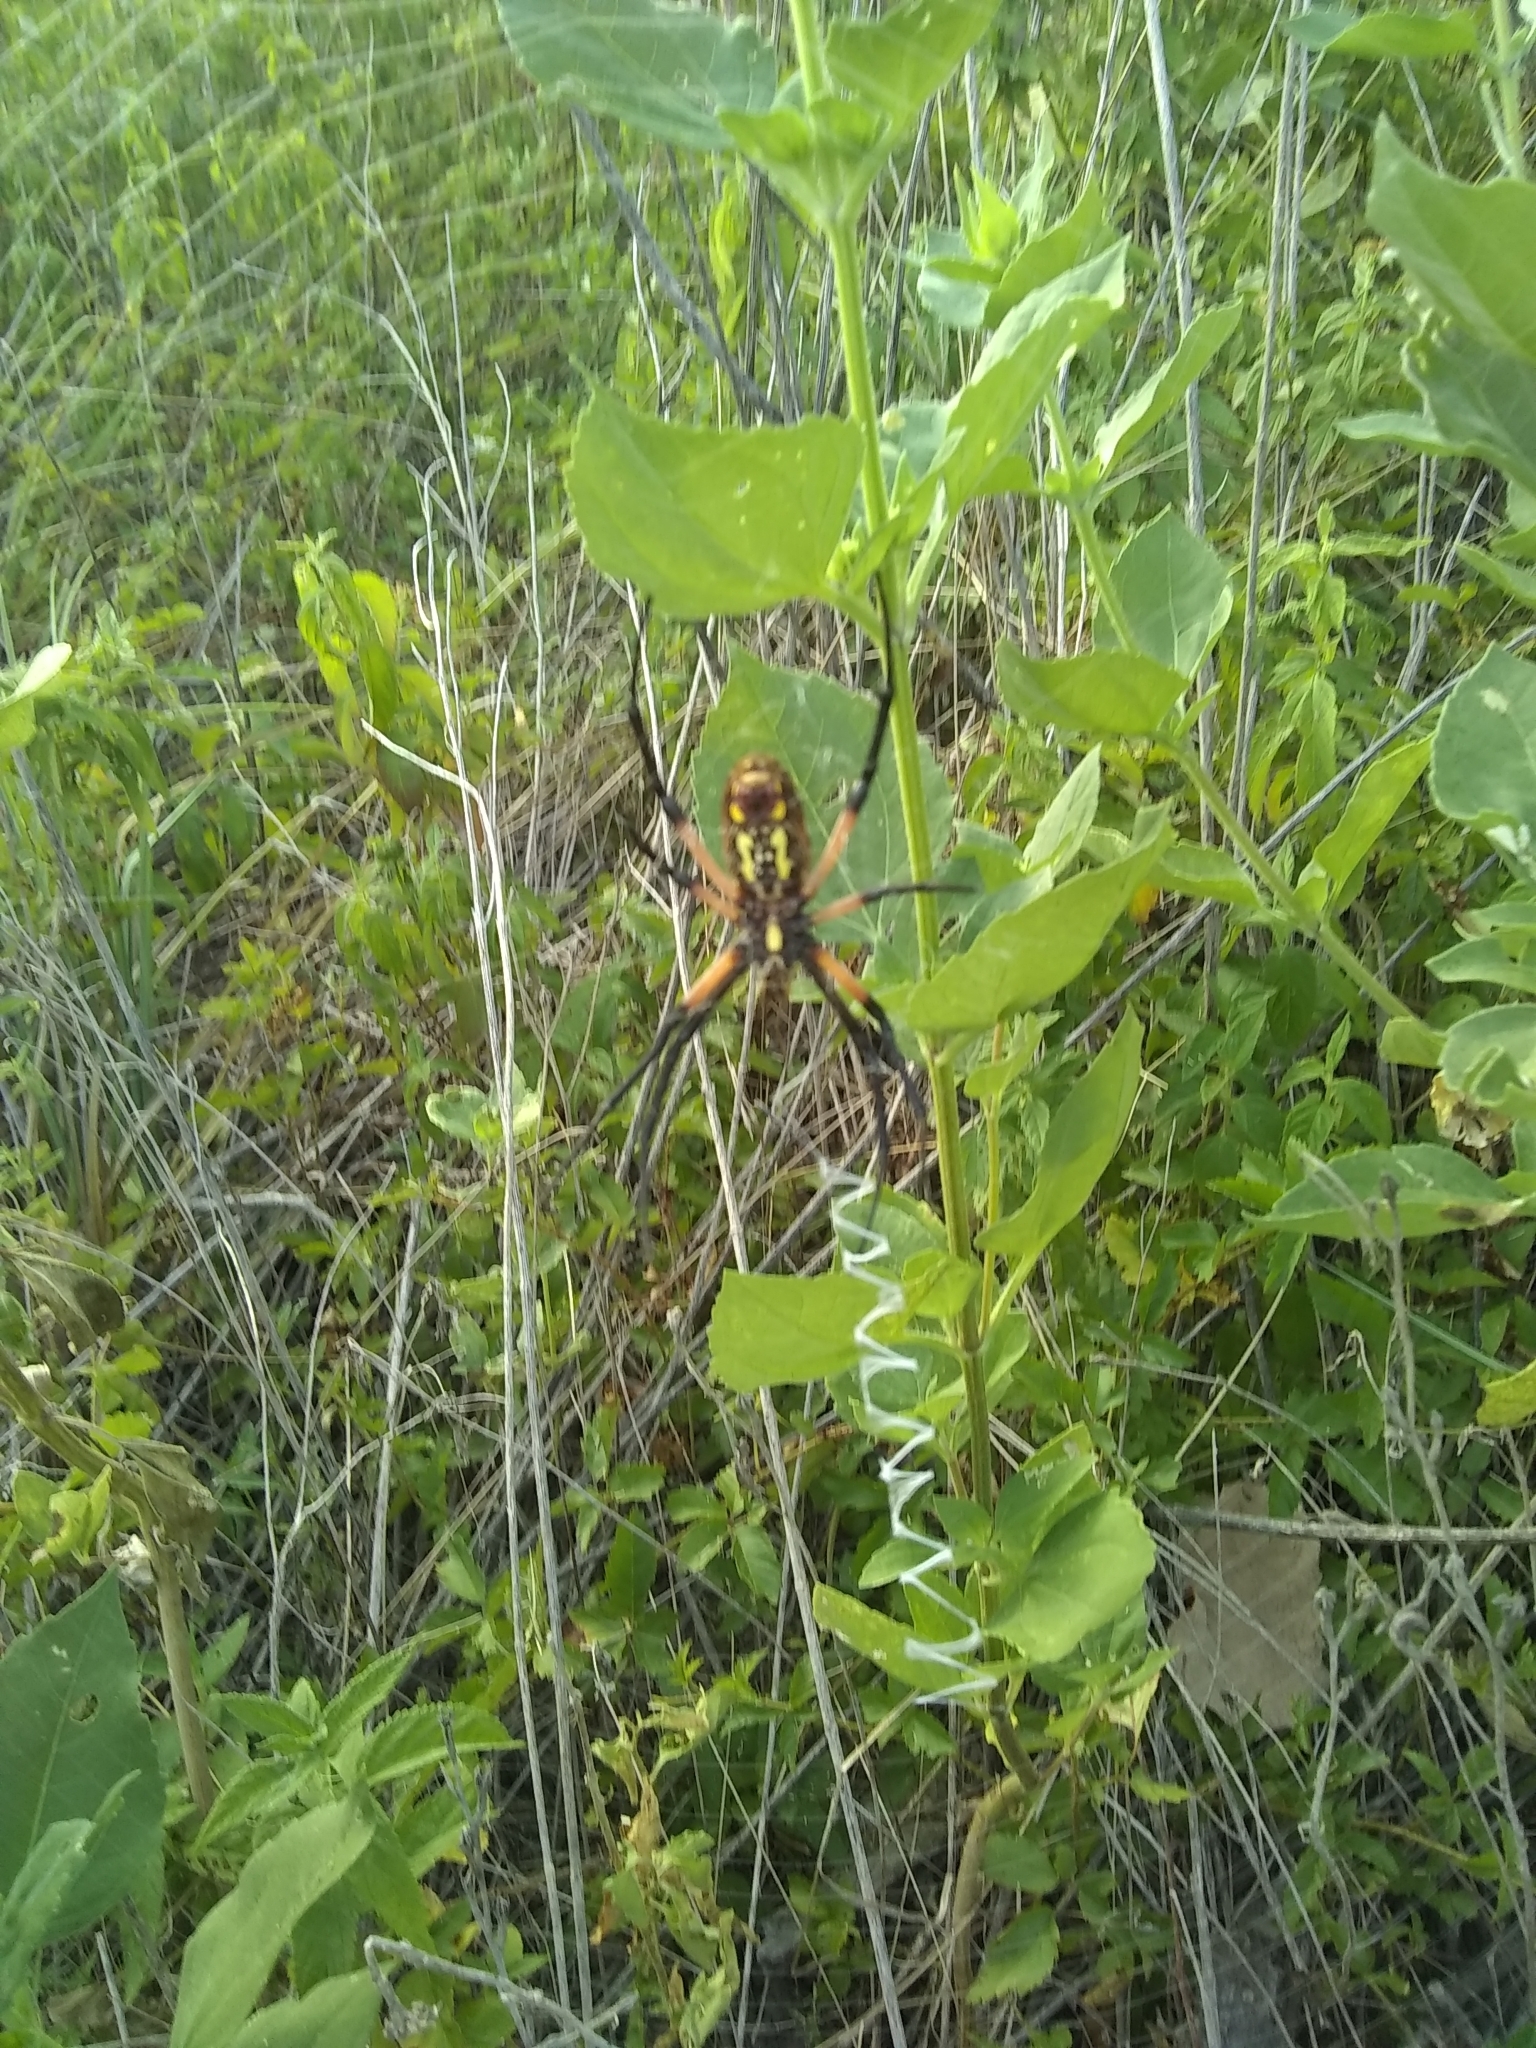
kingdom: Animalia
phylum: Arthropoda
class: Arachnida
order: Araneae
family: Araneidae
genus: Argiope
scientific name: Argiope aurantia
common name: Orb weavers
